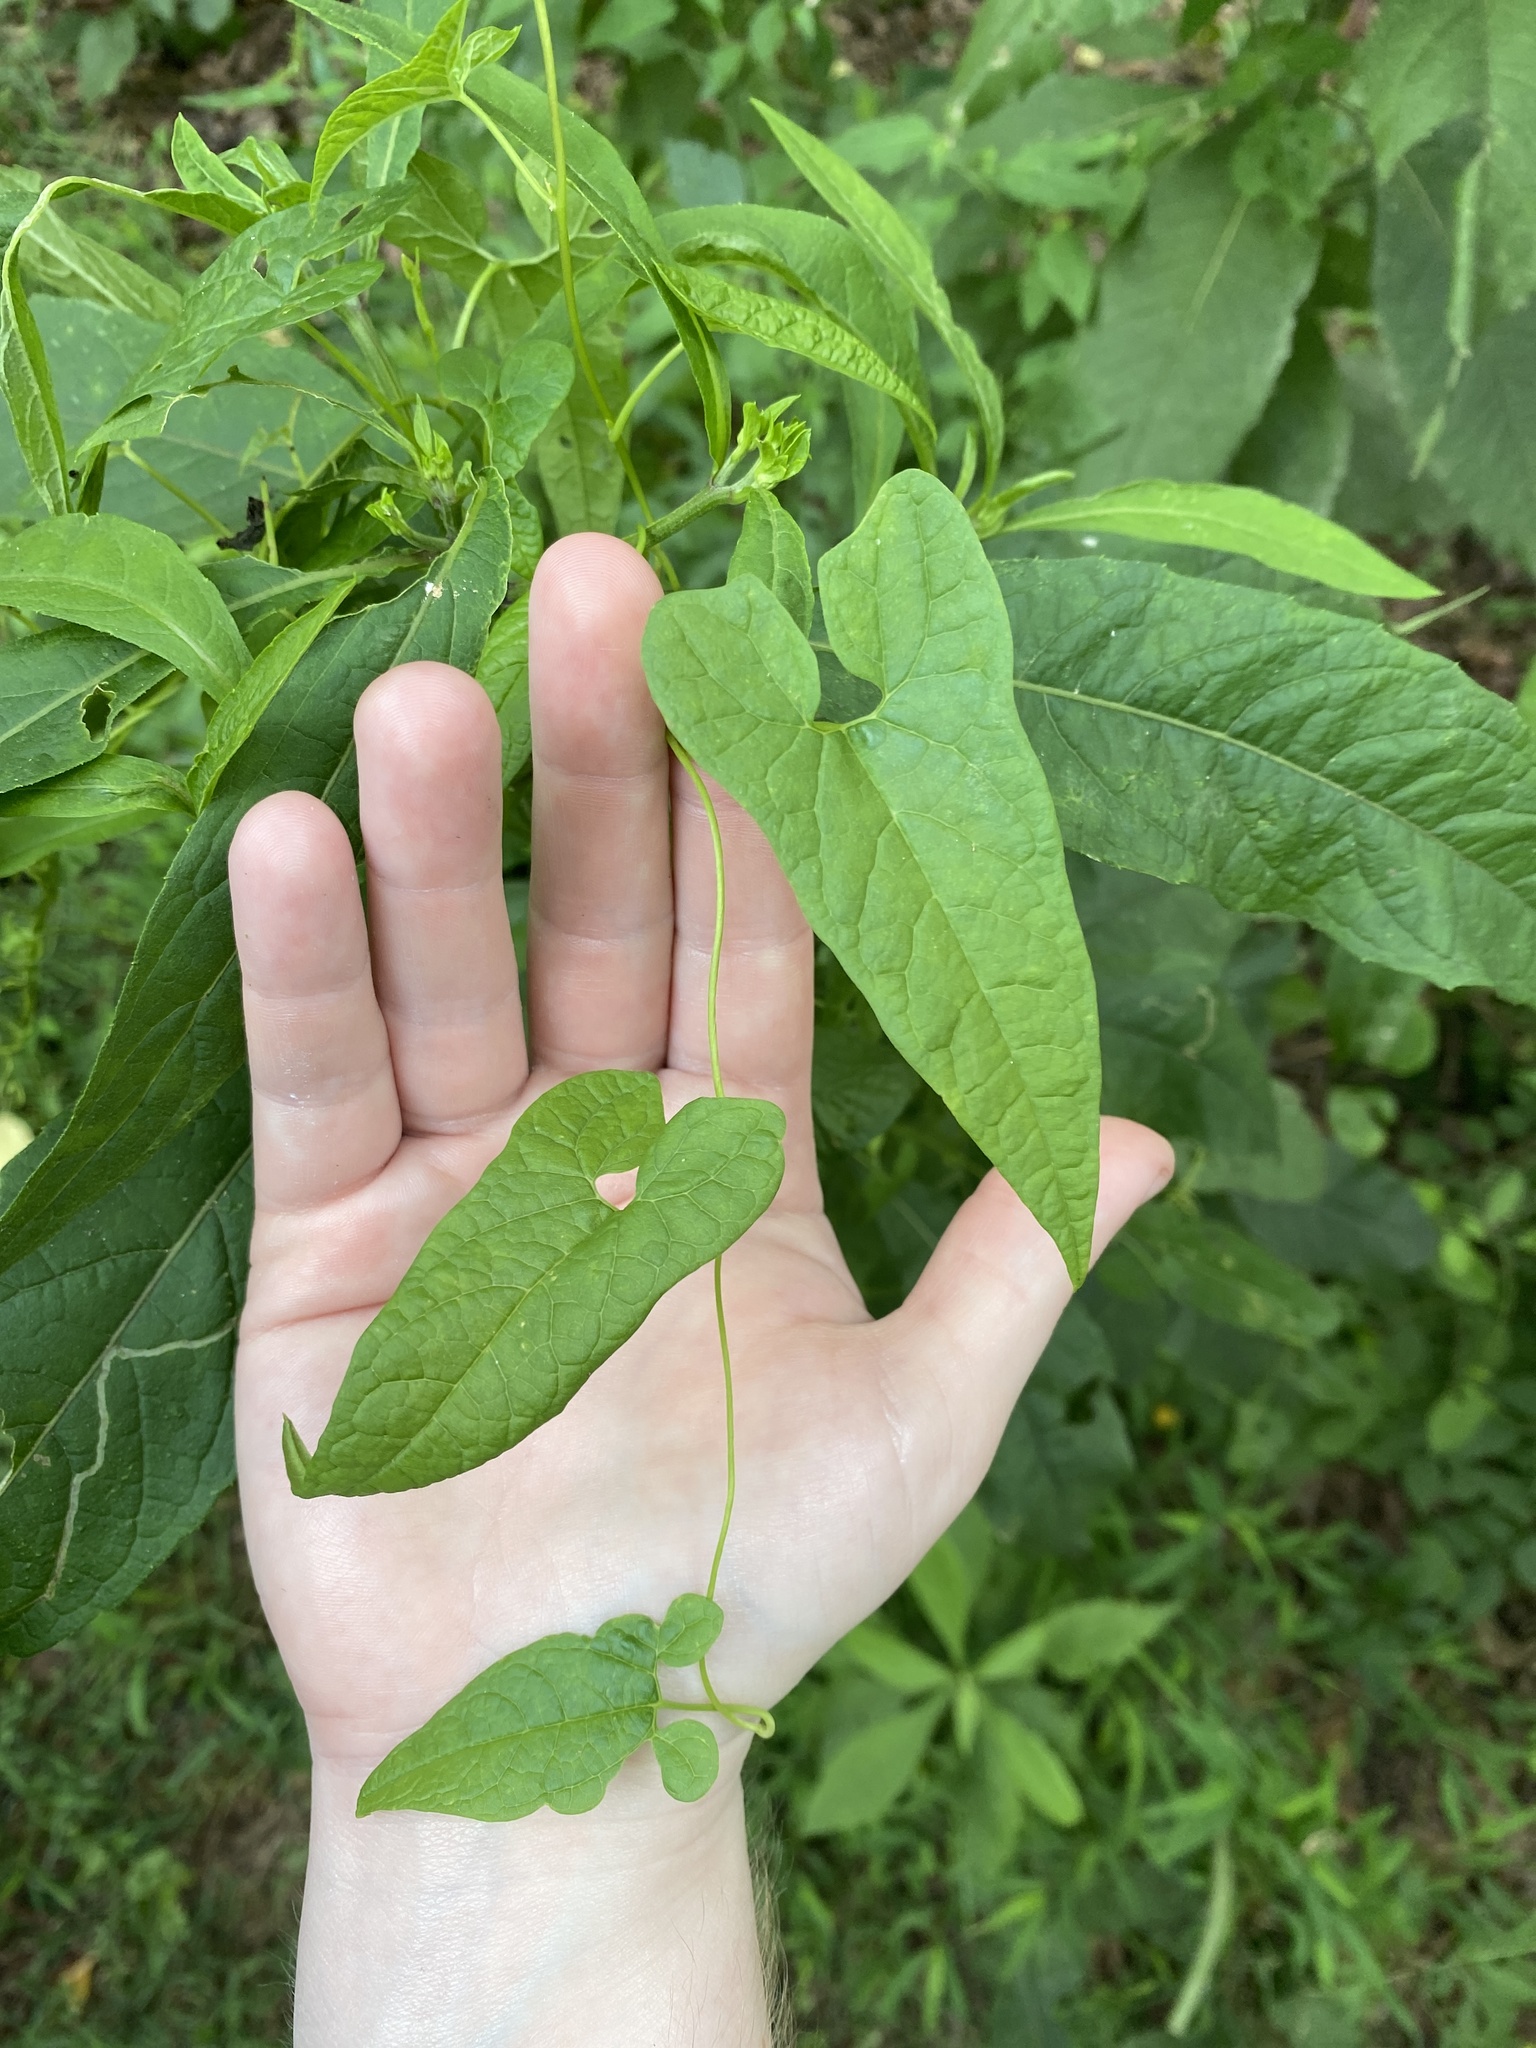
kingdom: Plantae
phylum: Tracheophyta
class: Magnoliopsida
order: Solanales
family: Convolvulaceae
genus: Calystegia
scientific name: Calystegia silvatica
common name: Large bindweed
